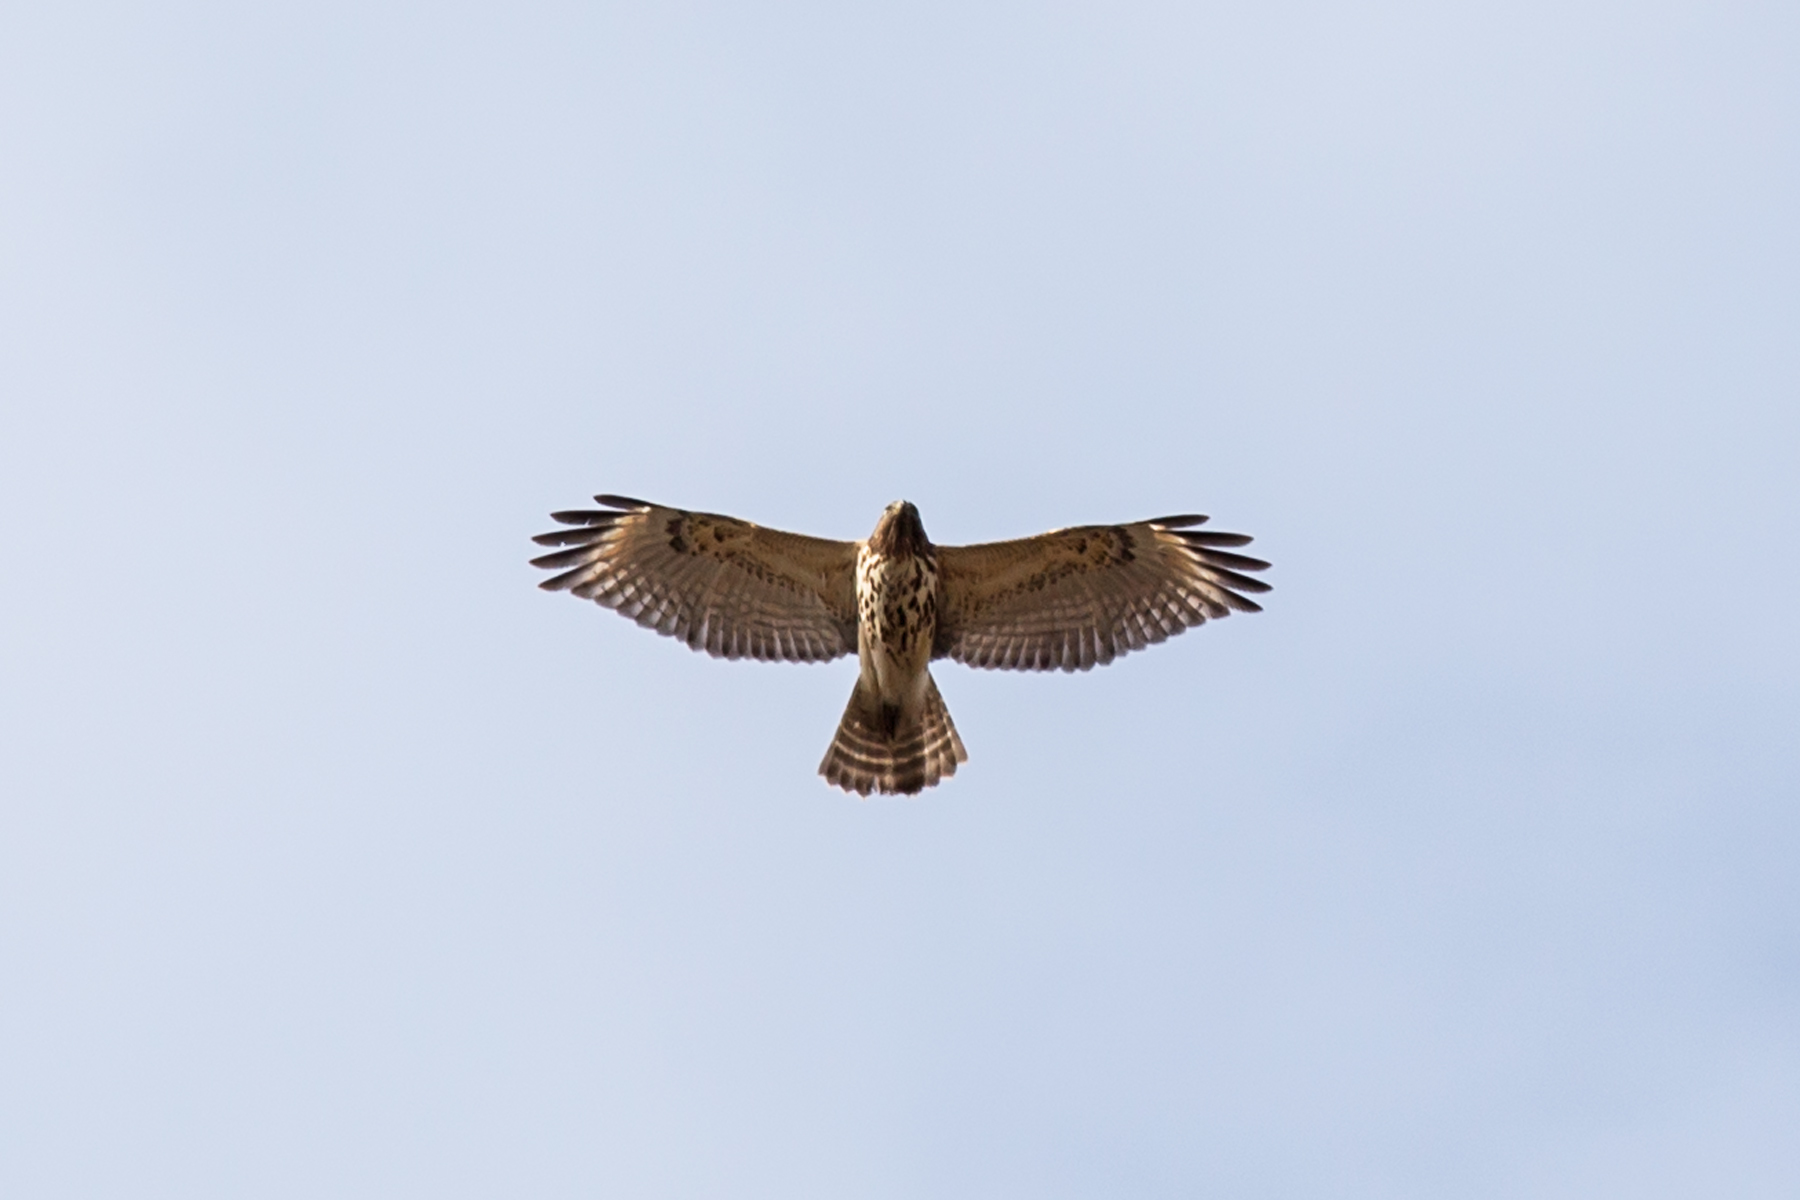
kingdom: Animalia
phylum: Chordata
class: Aves
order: Accipitriformes
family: Accipitridae
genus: Buteo
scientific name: Buteo lineatus
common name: Red-shouldered hawk
